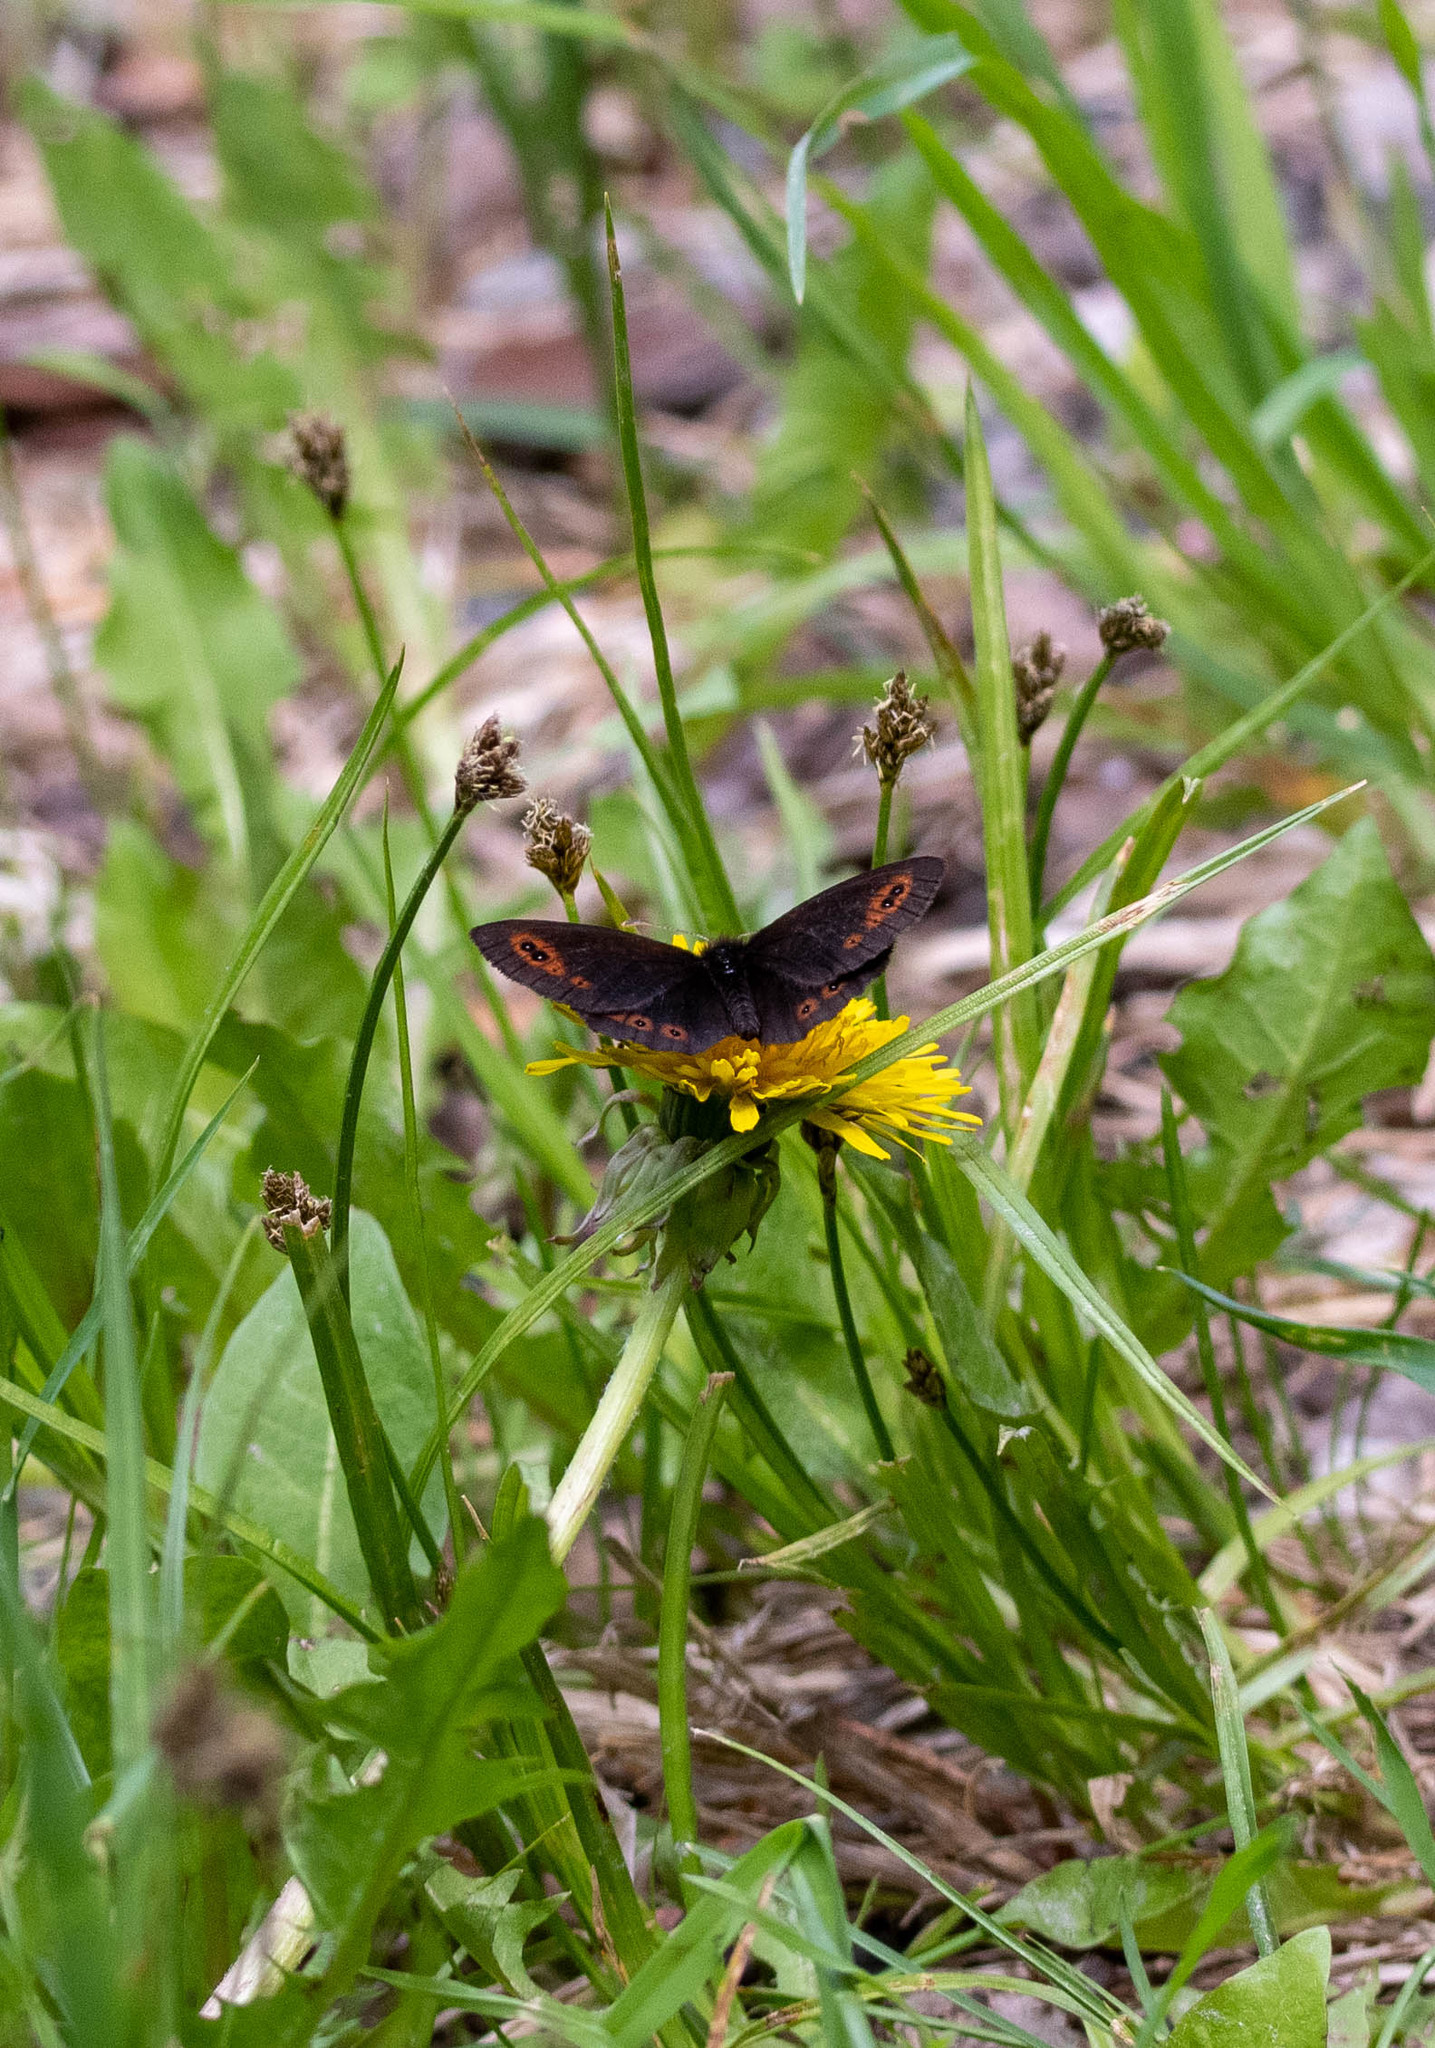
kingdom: Animalia
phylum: Arthropoda
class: Insecta
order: Lepidoptera
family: Nymphalidae
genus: Erebia
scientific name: Erebia epipsodea
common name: Common alpine
